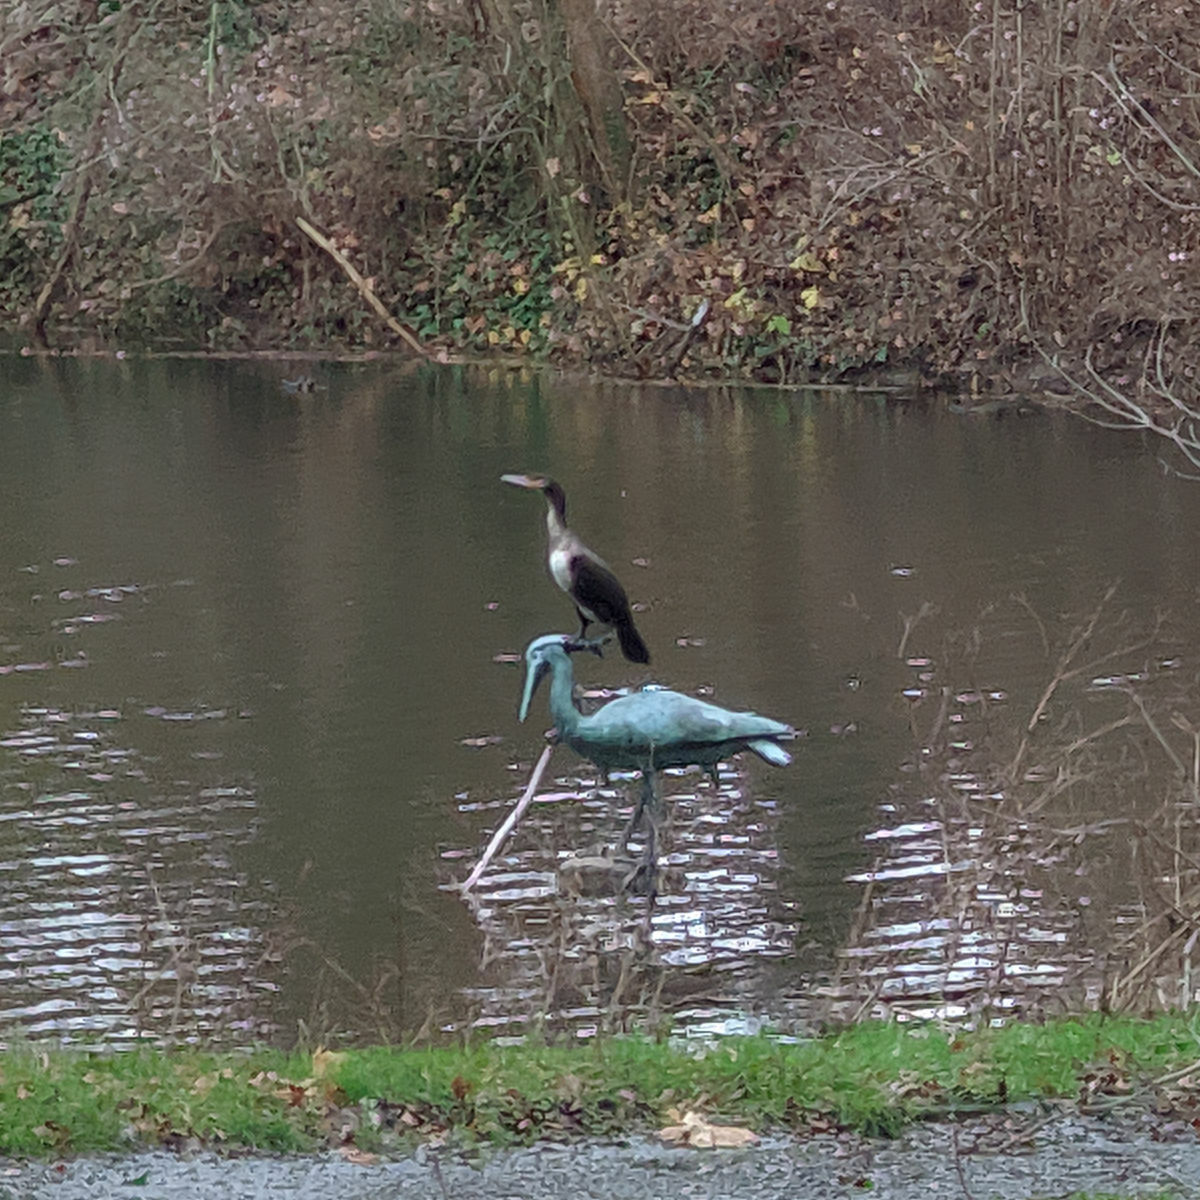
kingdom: Animalia
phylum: Chordata
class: Aves
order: Suliformes
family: Phalacrocoracidae
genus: Phalacrocorax
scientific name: Phalacrocorax carbo
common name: Great cormorant
